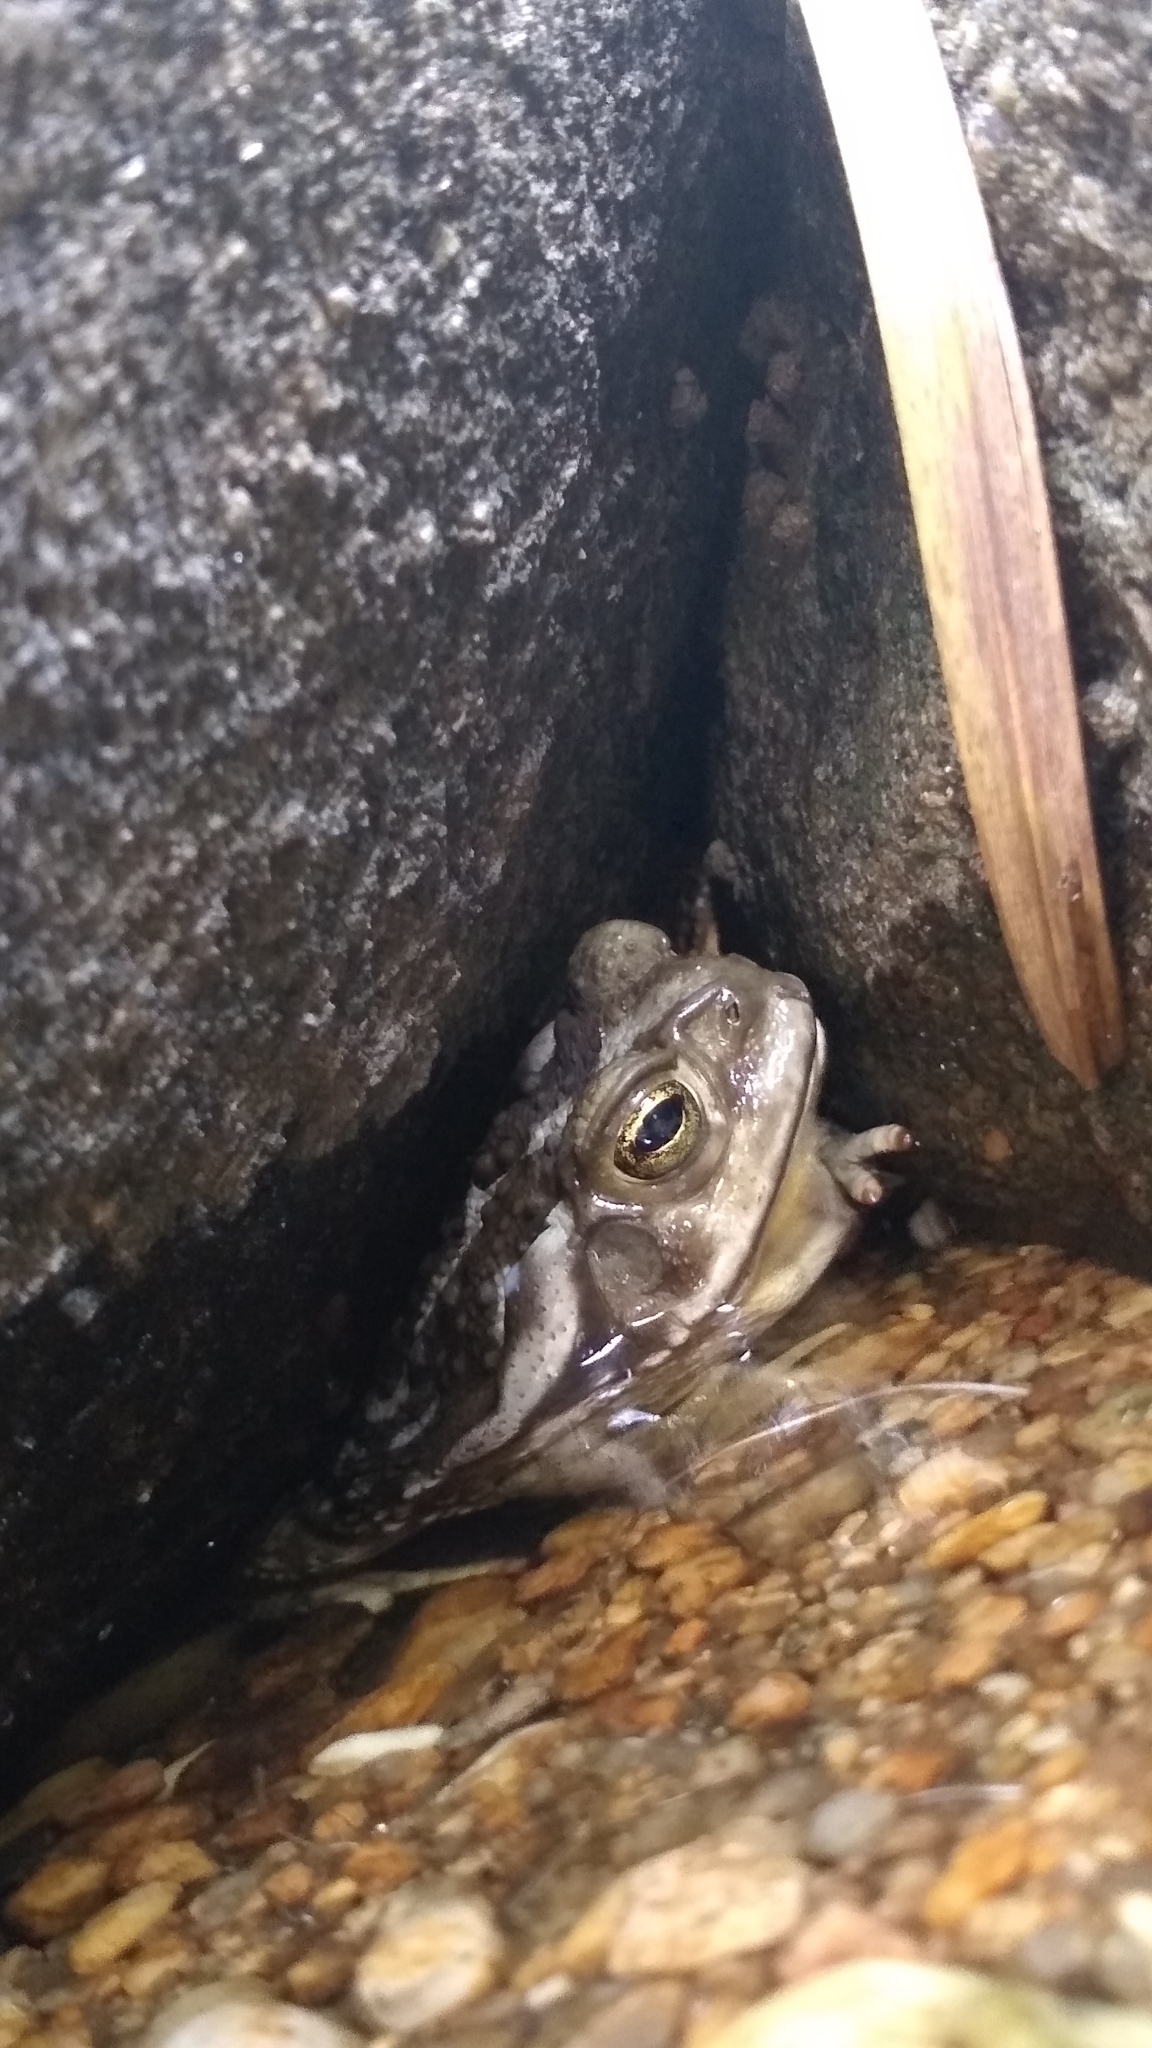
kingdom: Animalia
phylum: Chordata
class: Amphibia
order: Anura
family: Bufonidae
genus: Rhinella
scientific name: Rhinella arenarum
